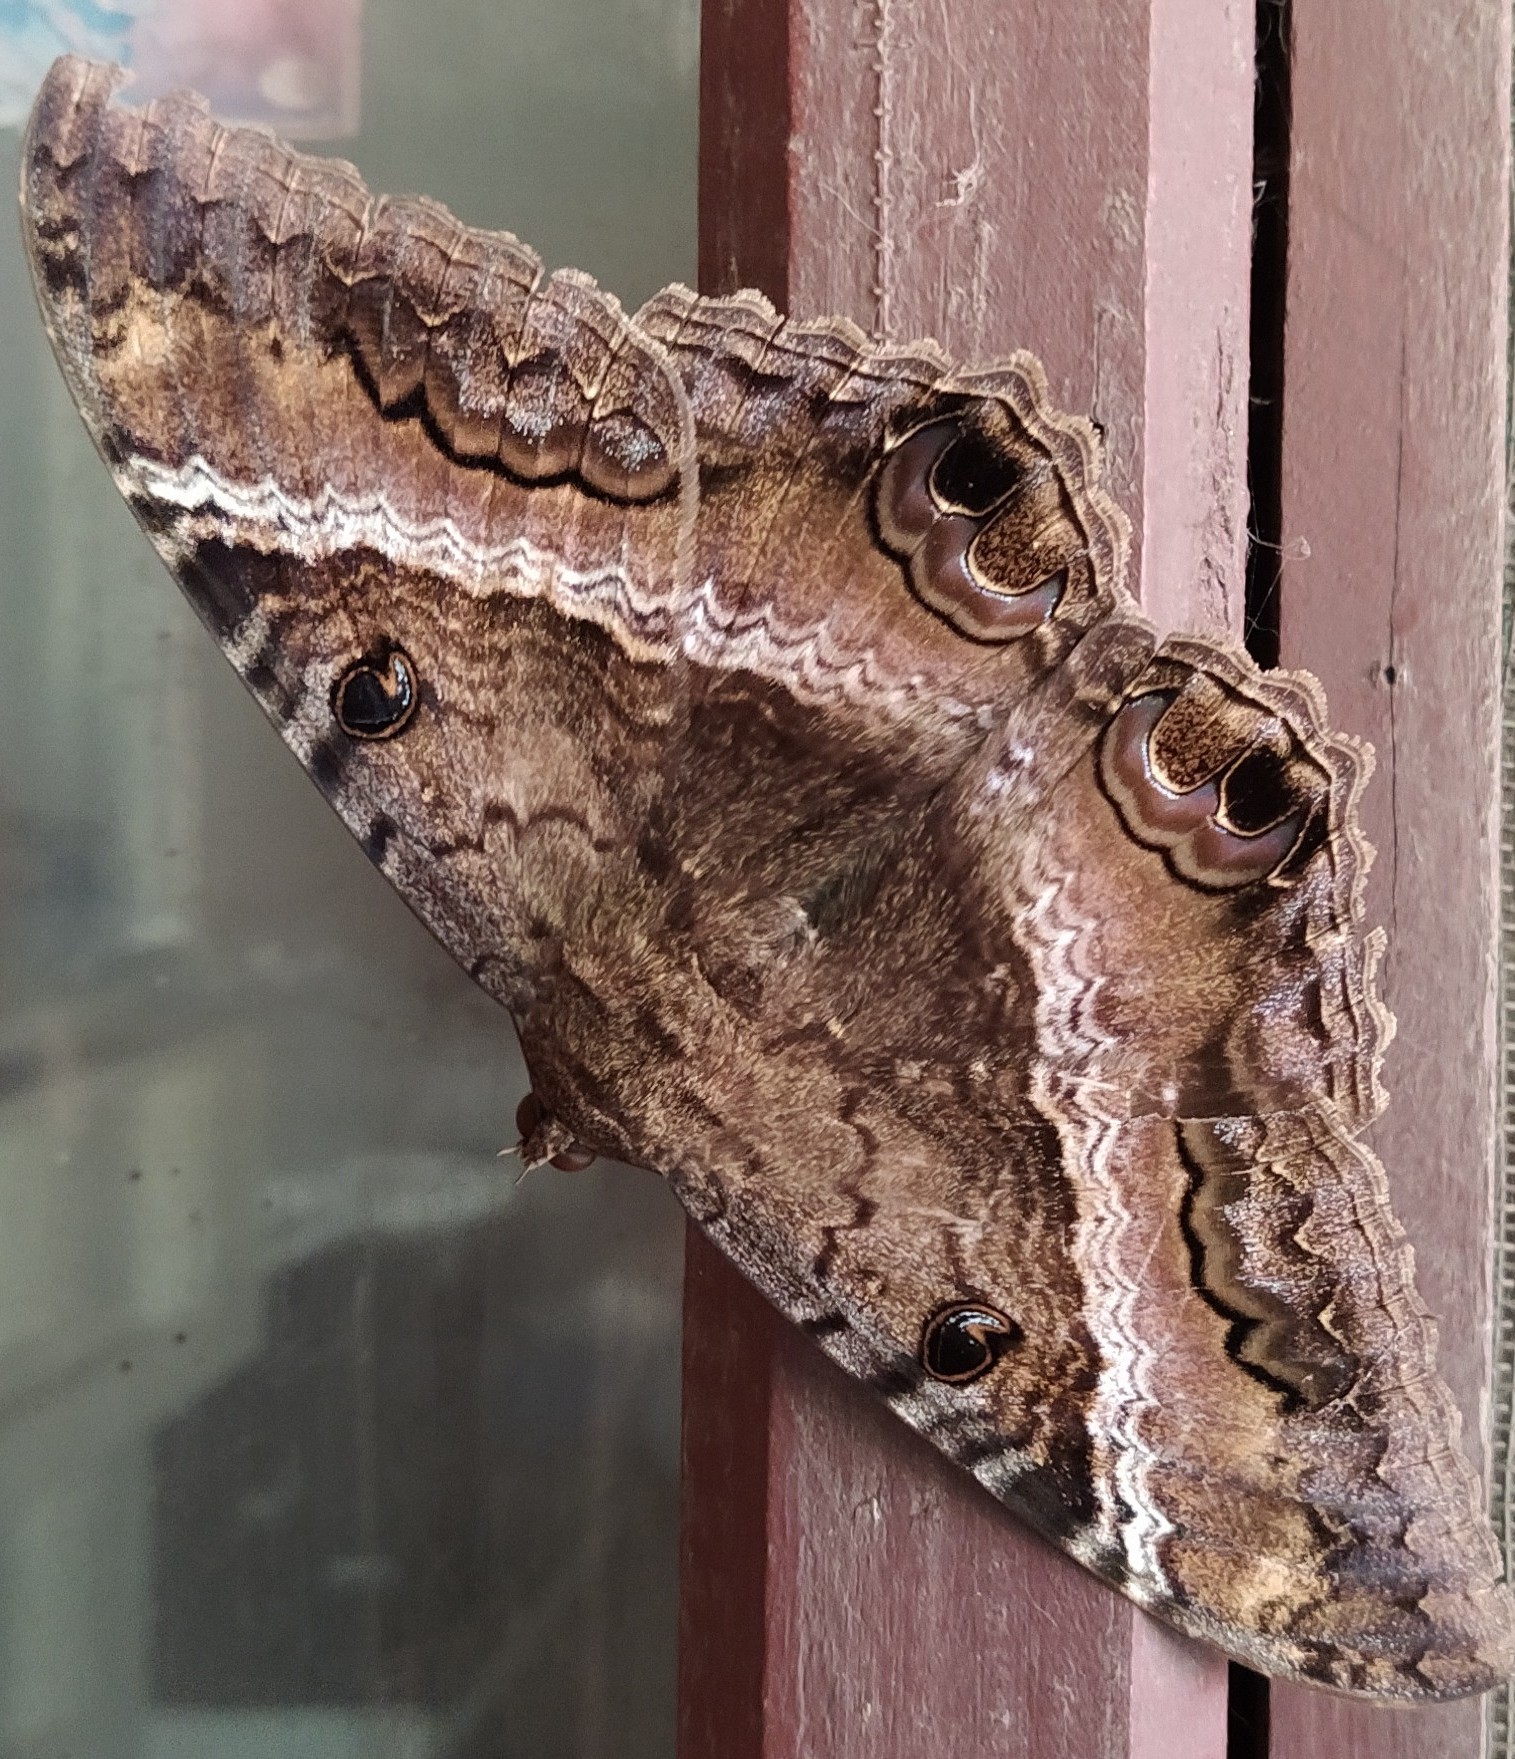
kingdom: Animalia
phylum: Arthropoda
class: Insecta
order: Lepidoptera
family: Erebidae
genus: Ascalapha
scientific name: Ascalapha odorata
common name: Black witch
